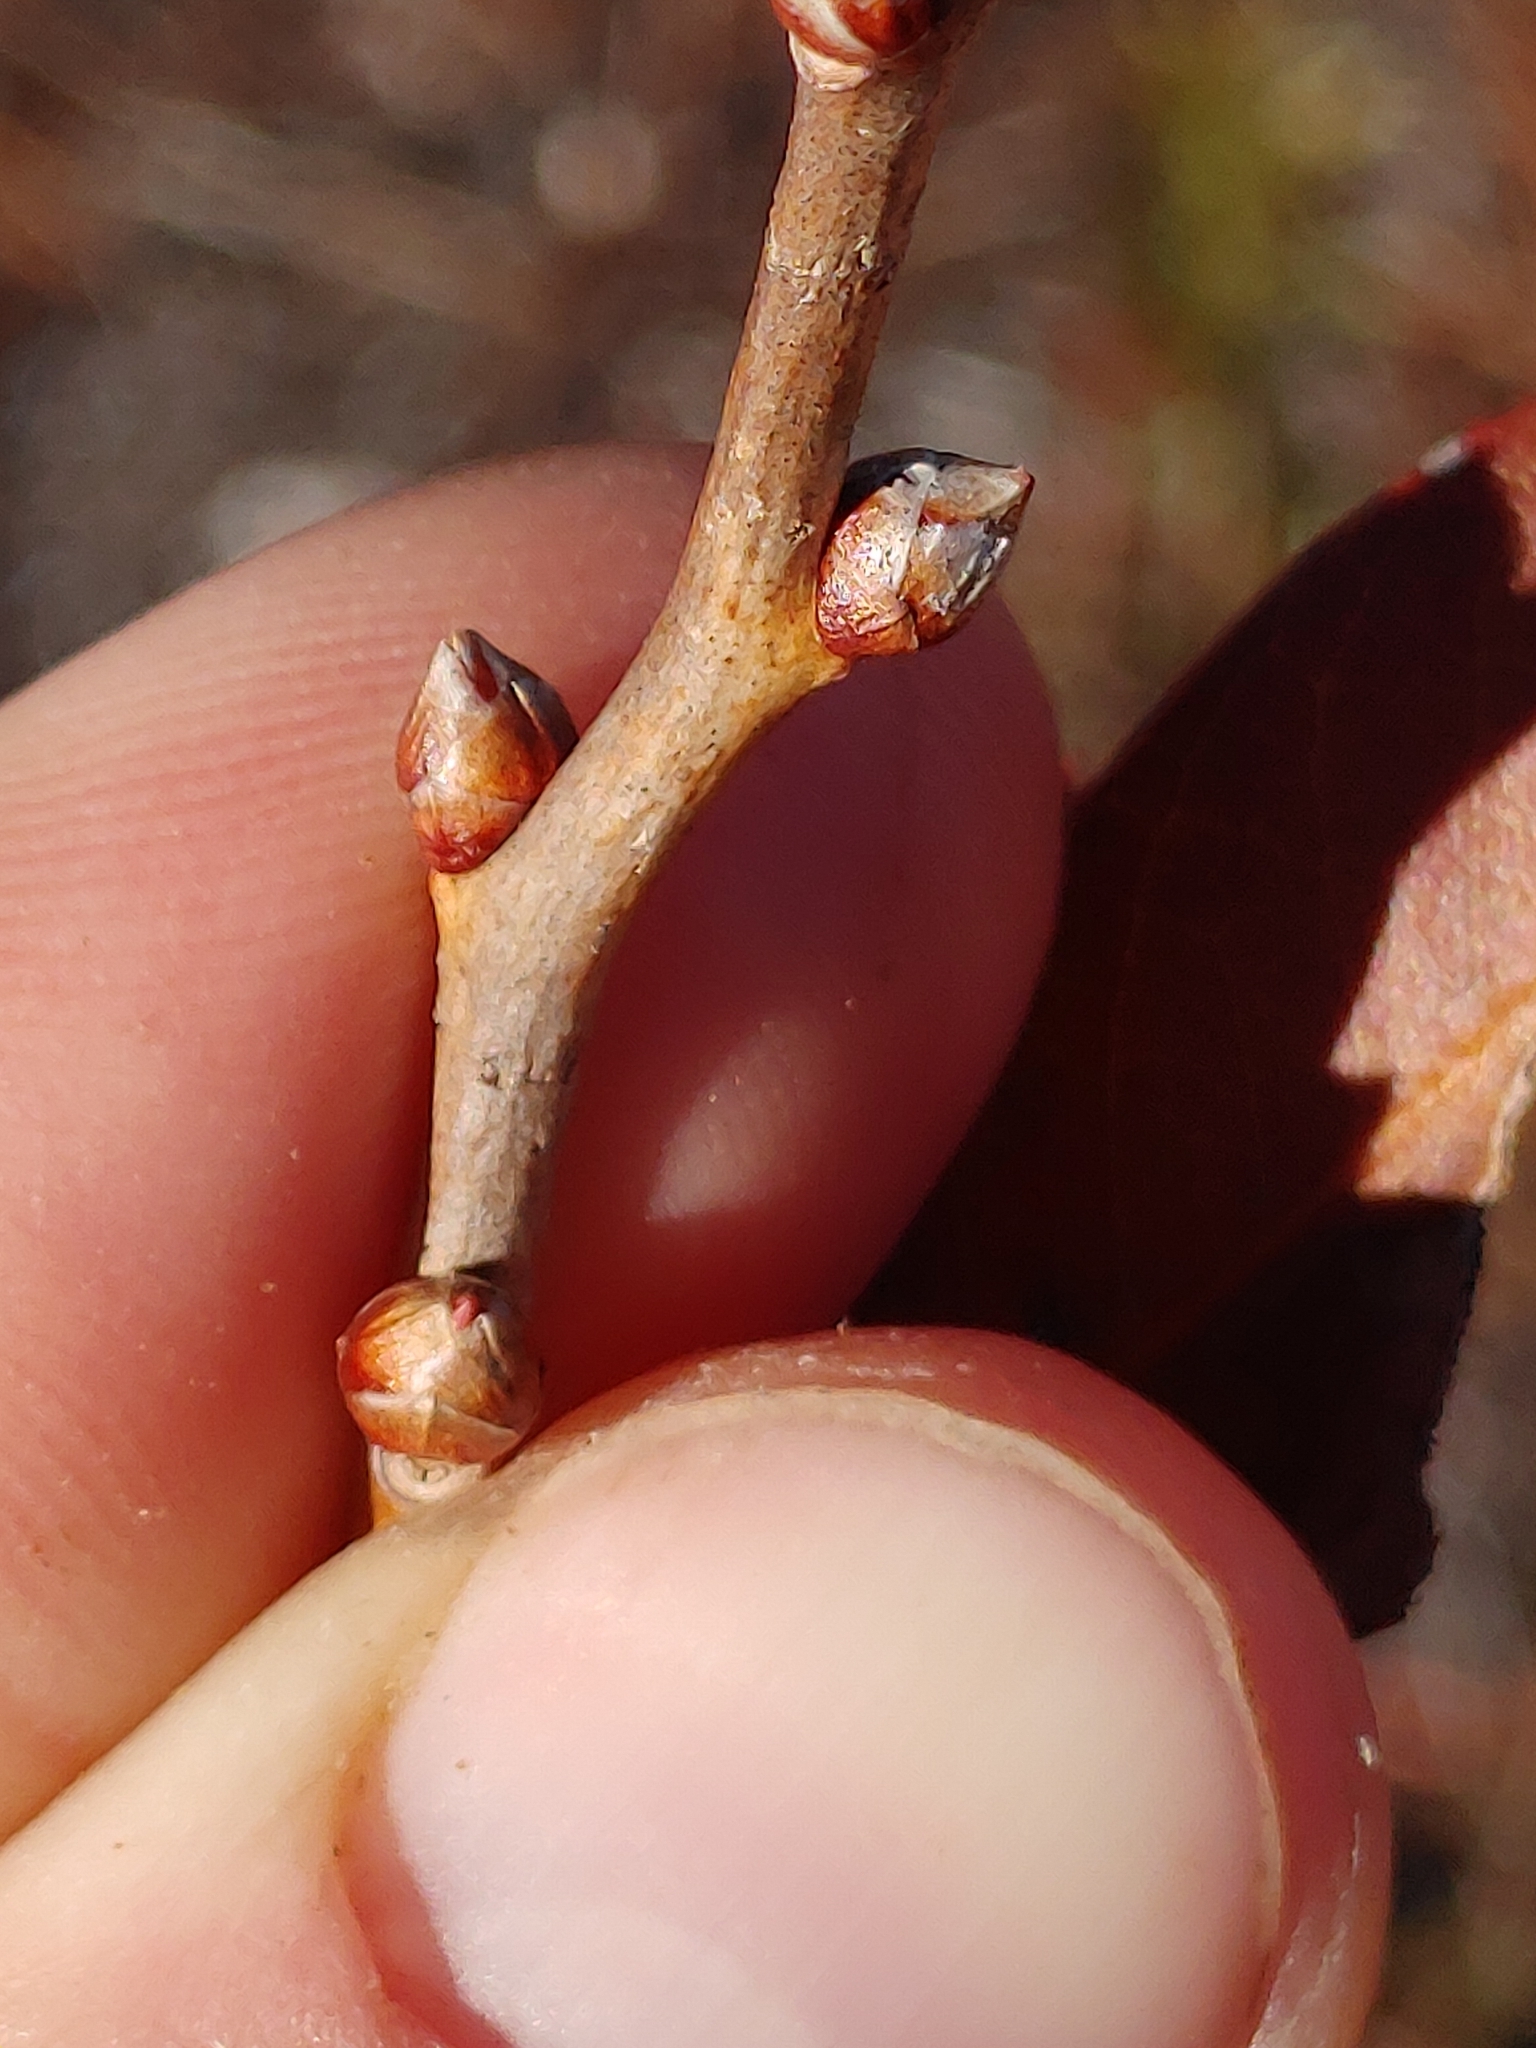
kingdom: Plantae
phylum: Tracheophyta
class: Magnoliopsida
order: Ericales
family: Ericaceae
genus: Lyonia
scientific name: Lyonia mariana
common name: Staggerbush
